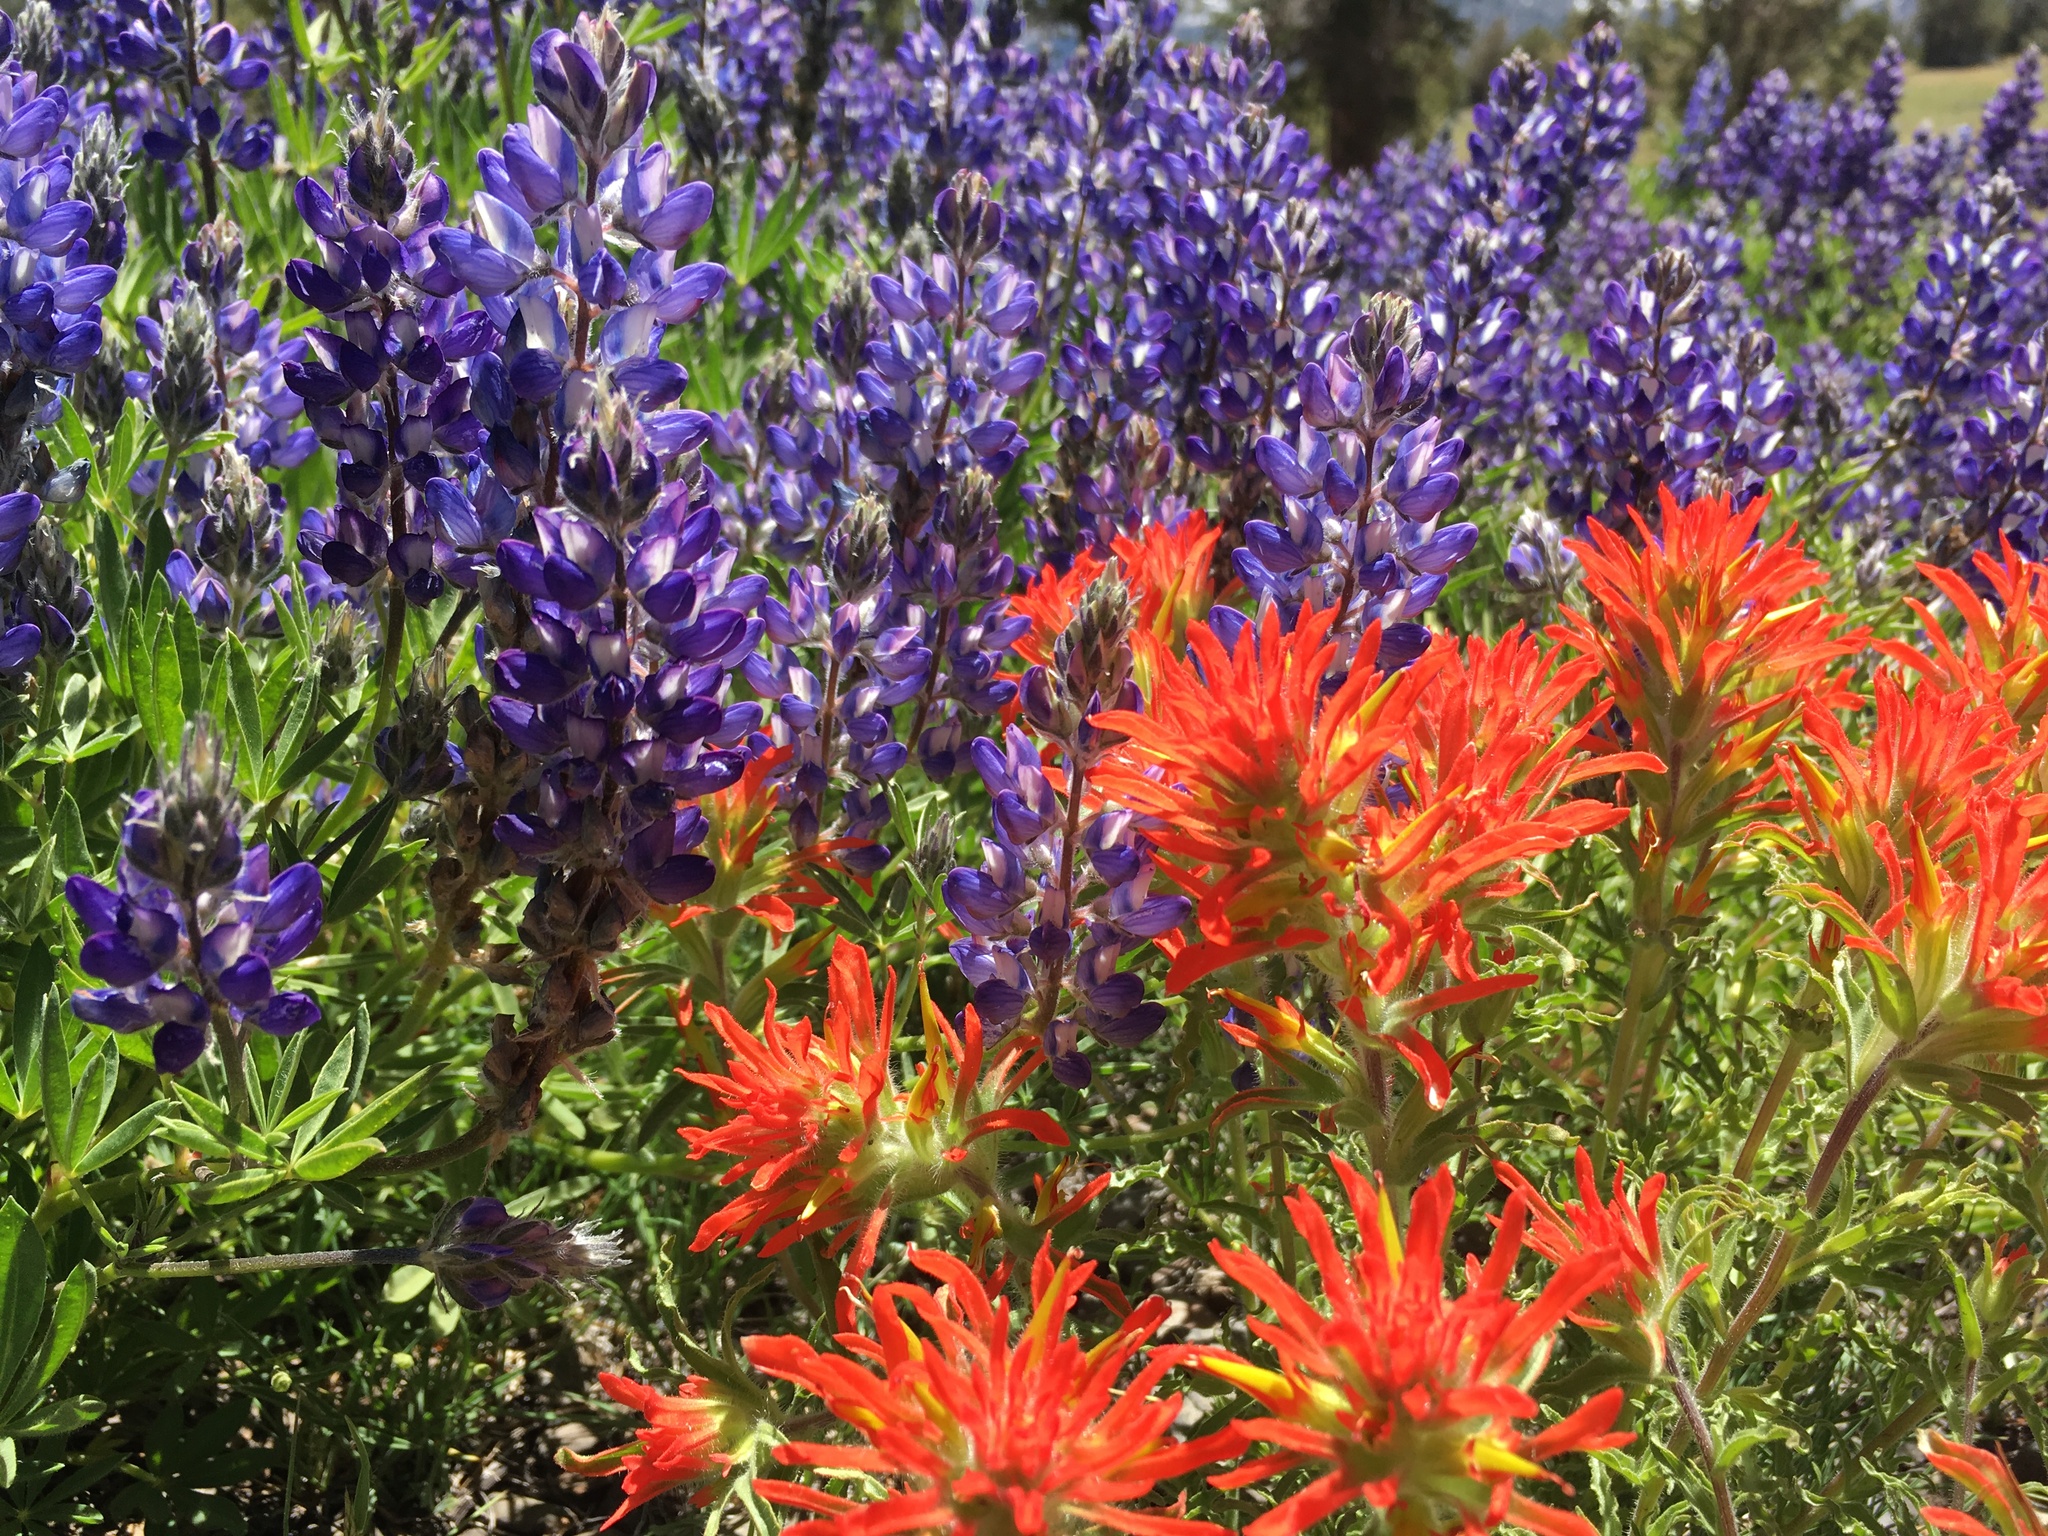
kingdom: Plantae
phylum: Tracheophyta
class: Magnoliopsida
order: Lamiales
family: Orobanchaceae
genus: Castilleja
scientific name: Castilleja applegatei
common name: Wavy-leaf paintbrush
